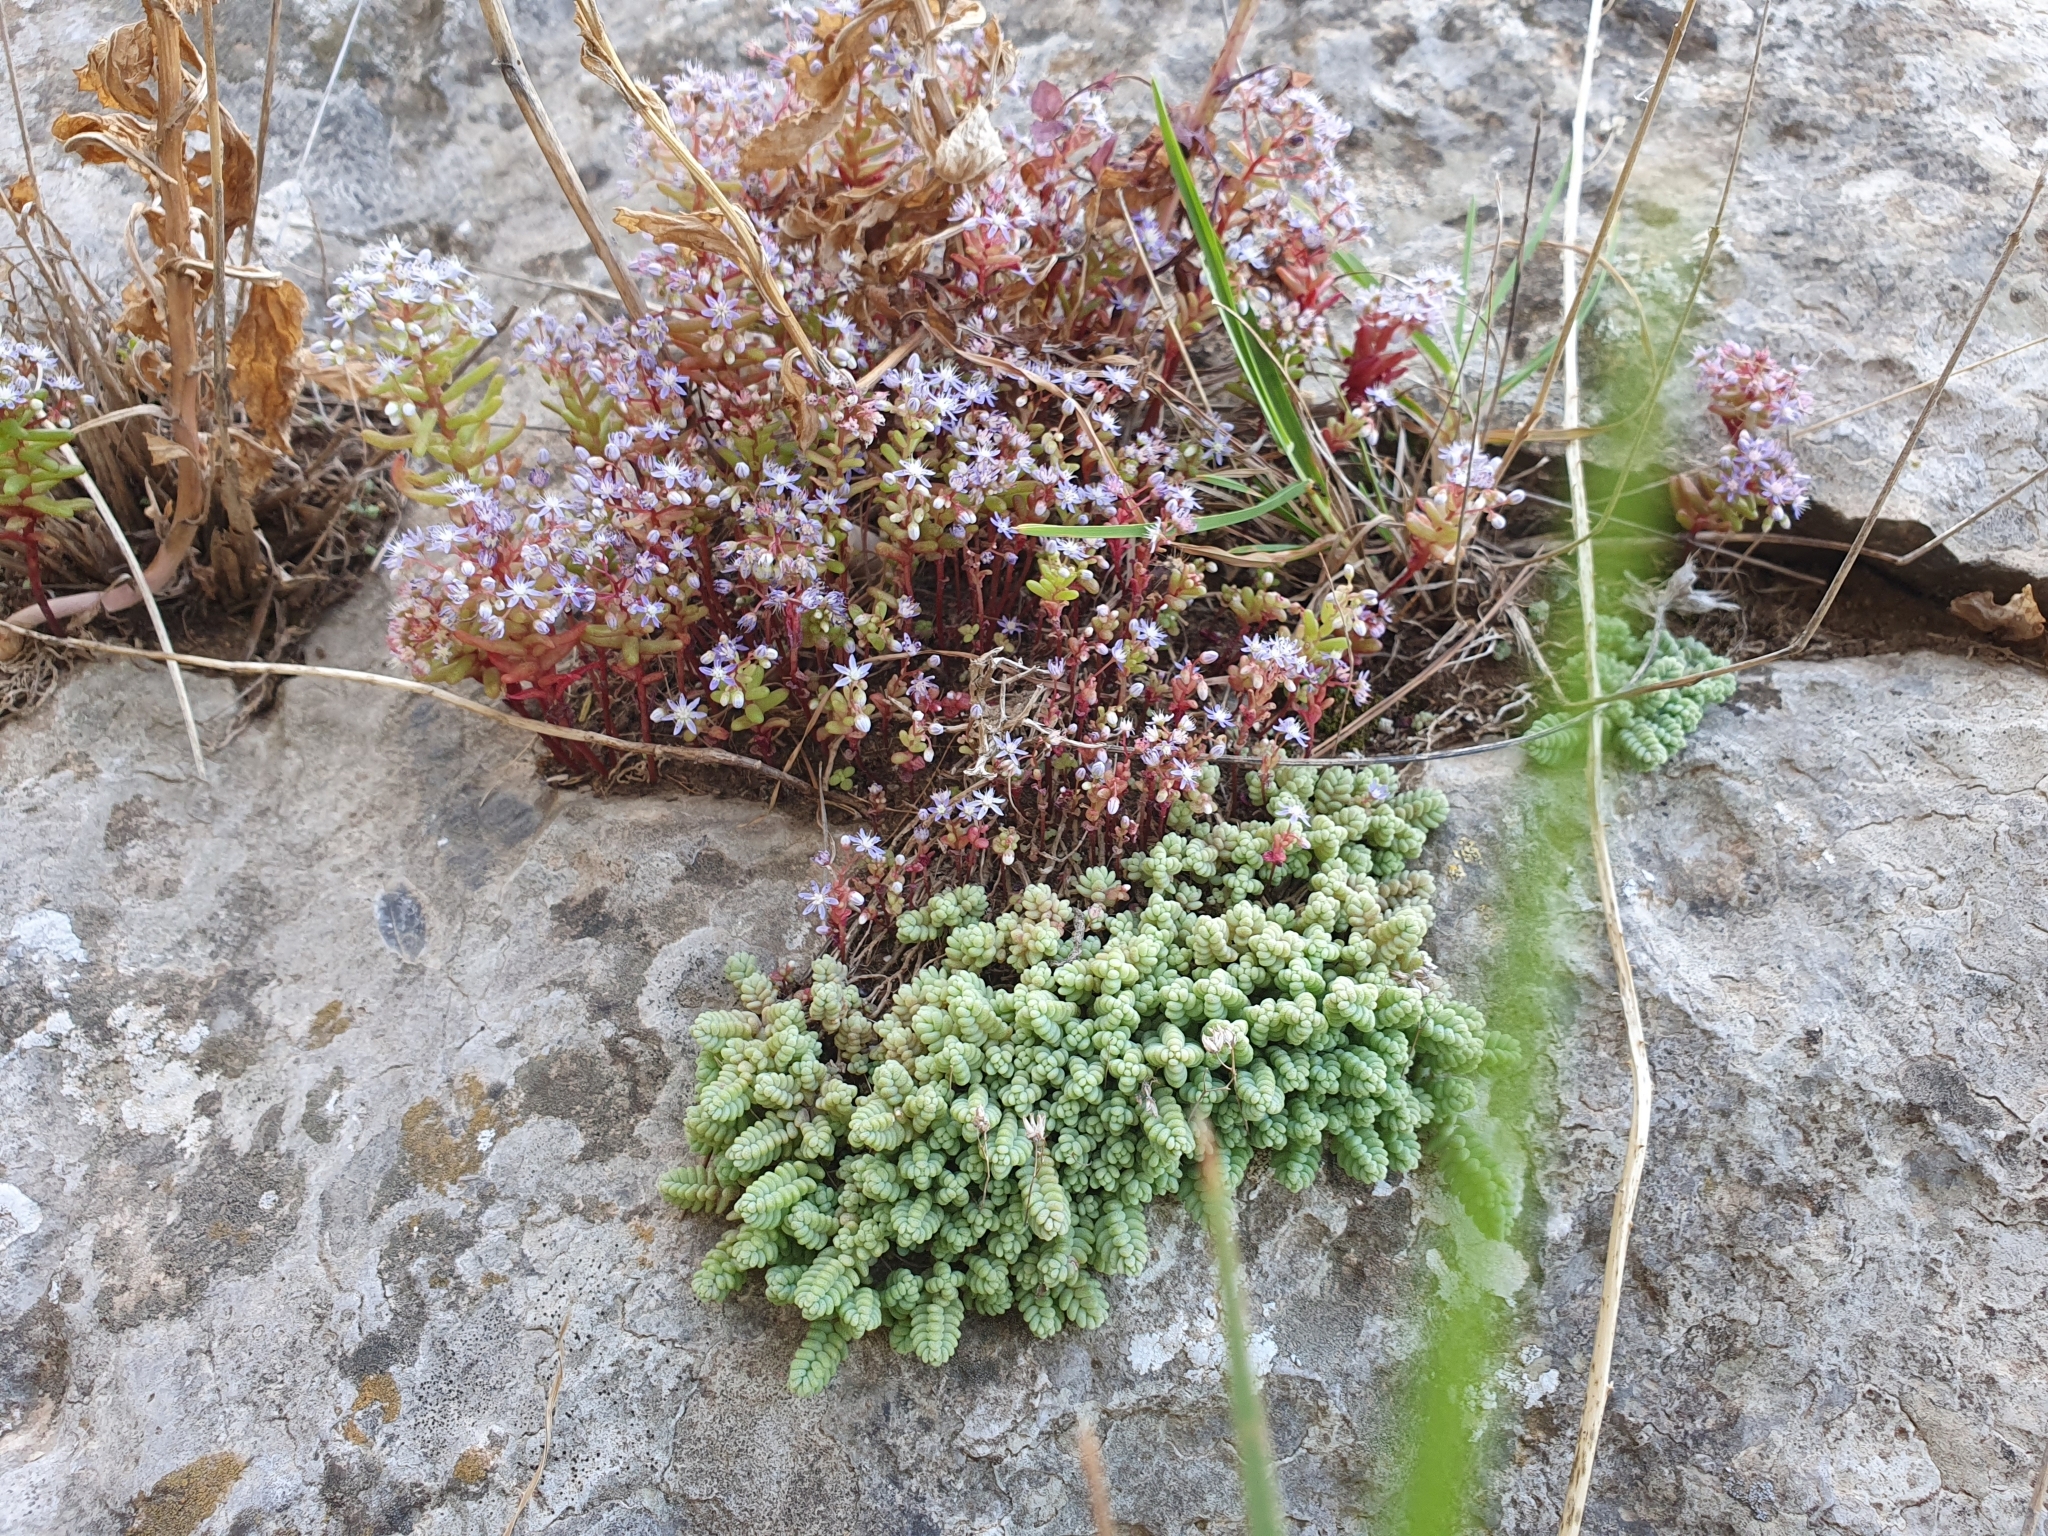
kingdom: Plantae
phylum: Tracheophyta
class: Magnoliopsida
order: Saxifragales
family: Crassulaceae
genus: Sedum
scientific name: Sedum dasyphyllum
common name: Thick-leaf stonecrop
